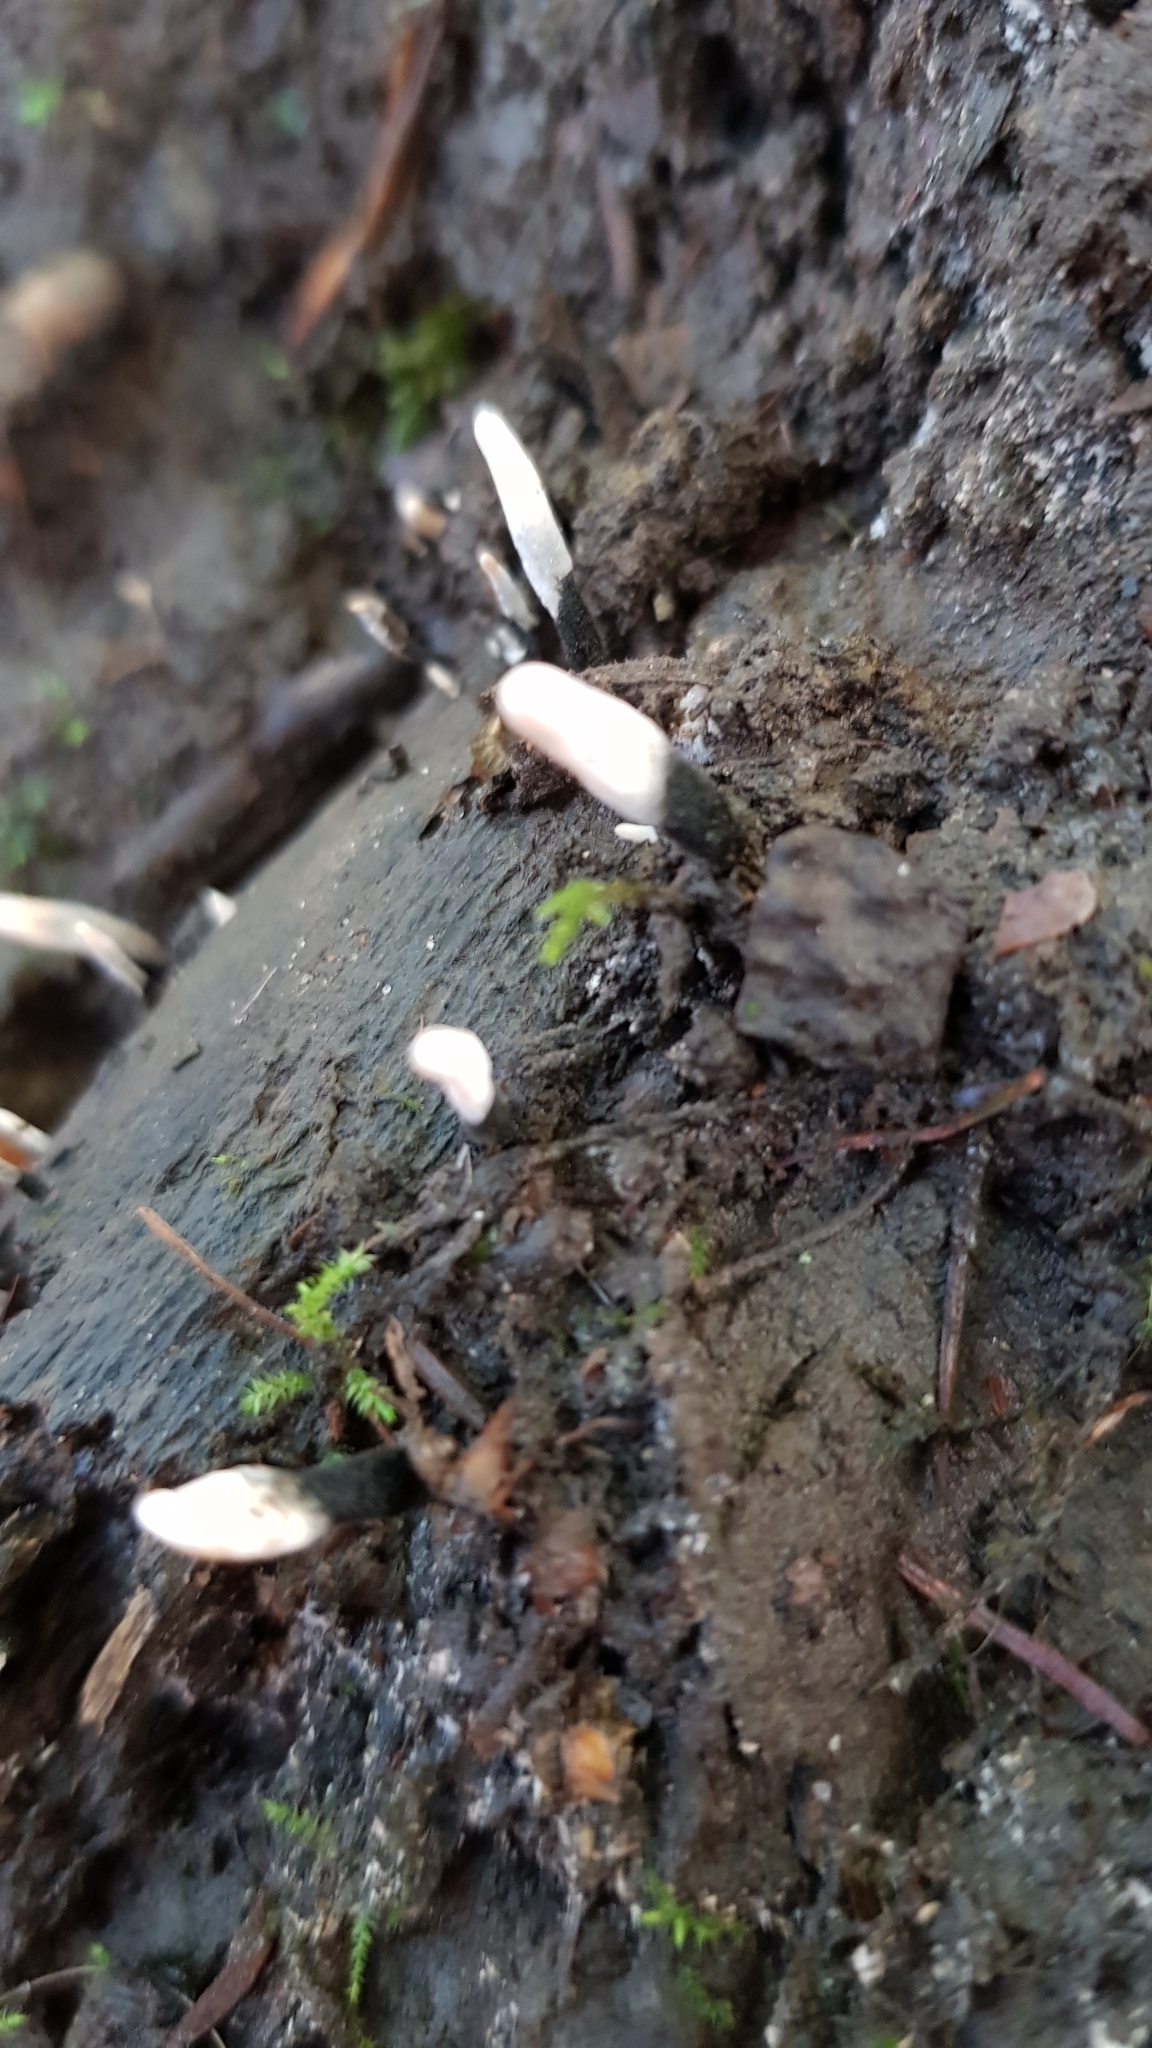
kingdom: Fungi
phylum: Ascomycota
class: Sordariomycetes
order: Xylariales
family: Xylariaceae
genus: Xylaria
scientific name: Xylaria hypoxylon
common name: Candle-snuff fungus
